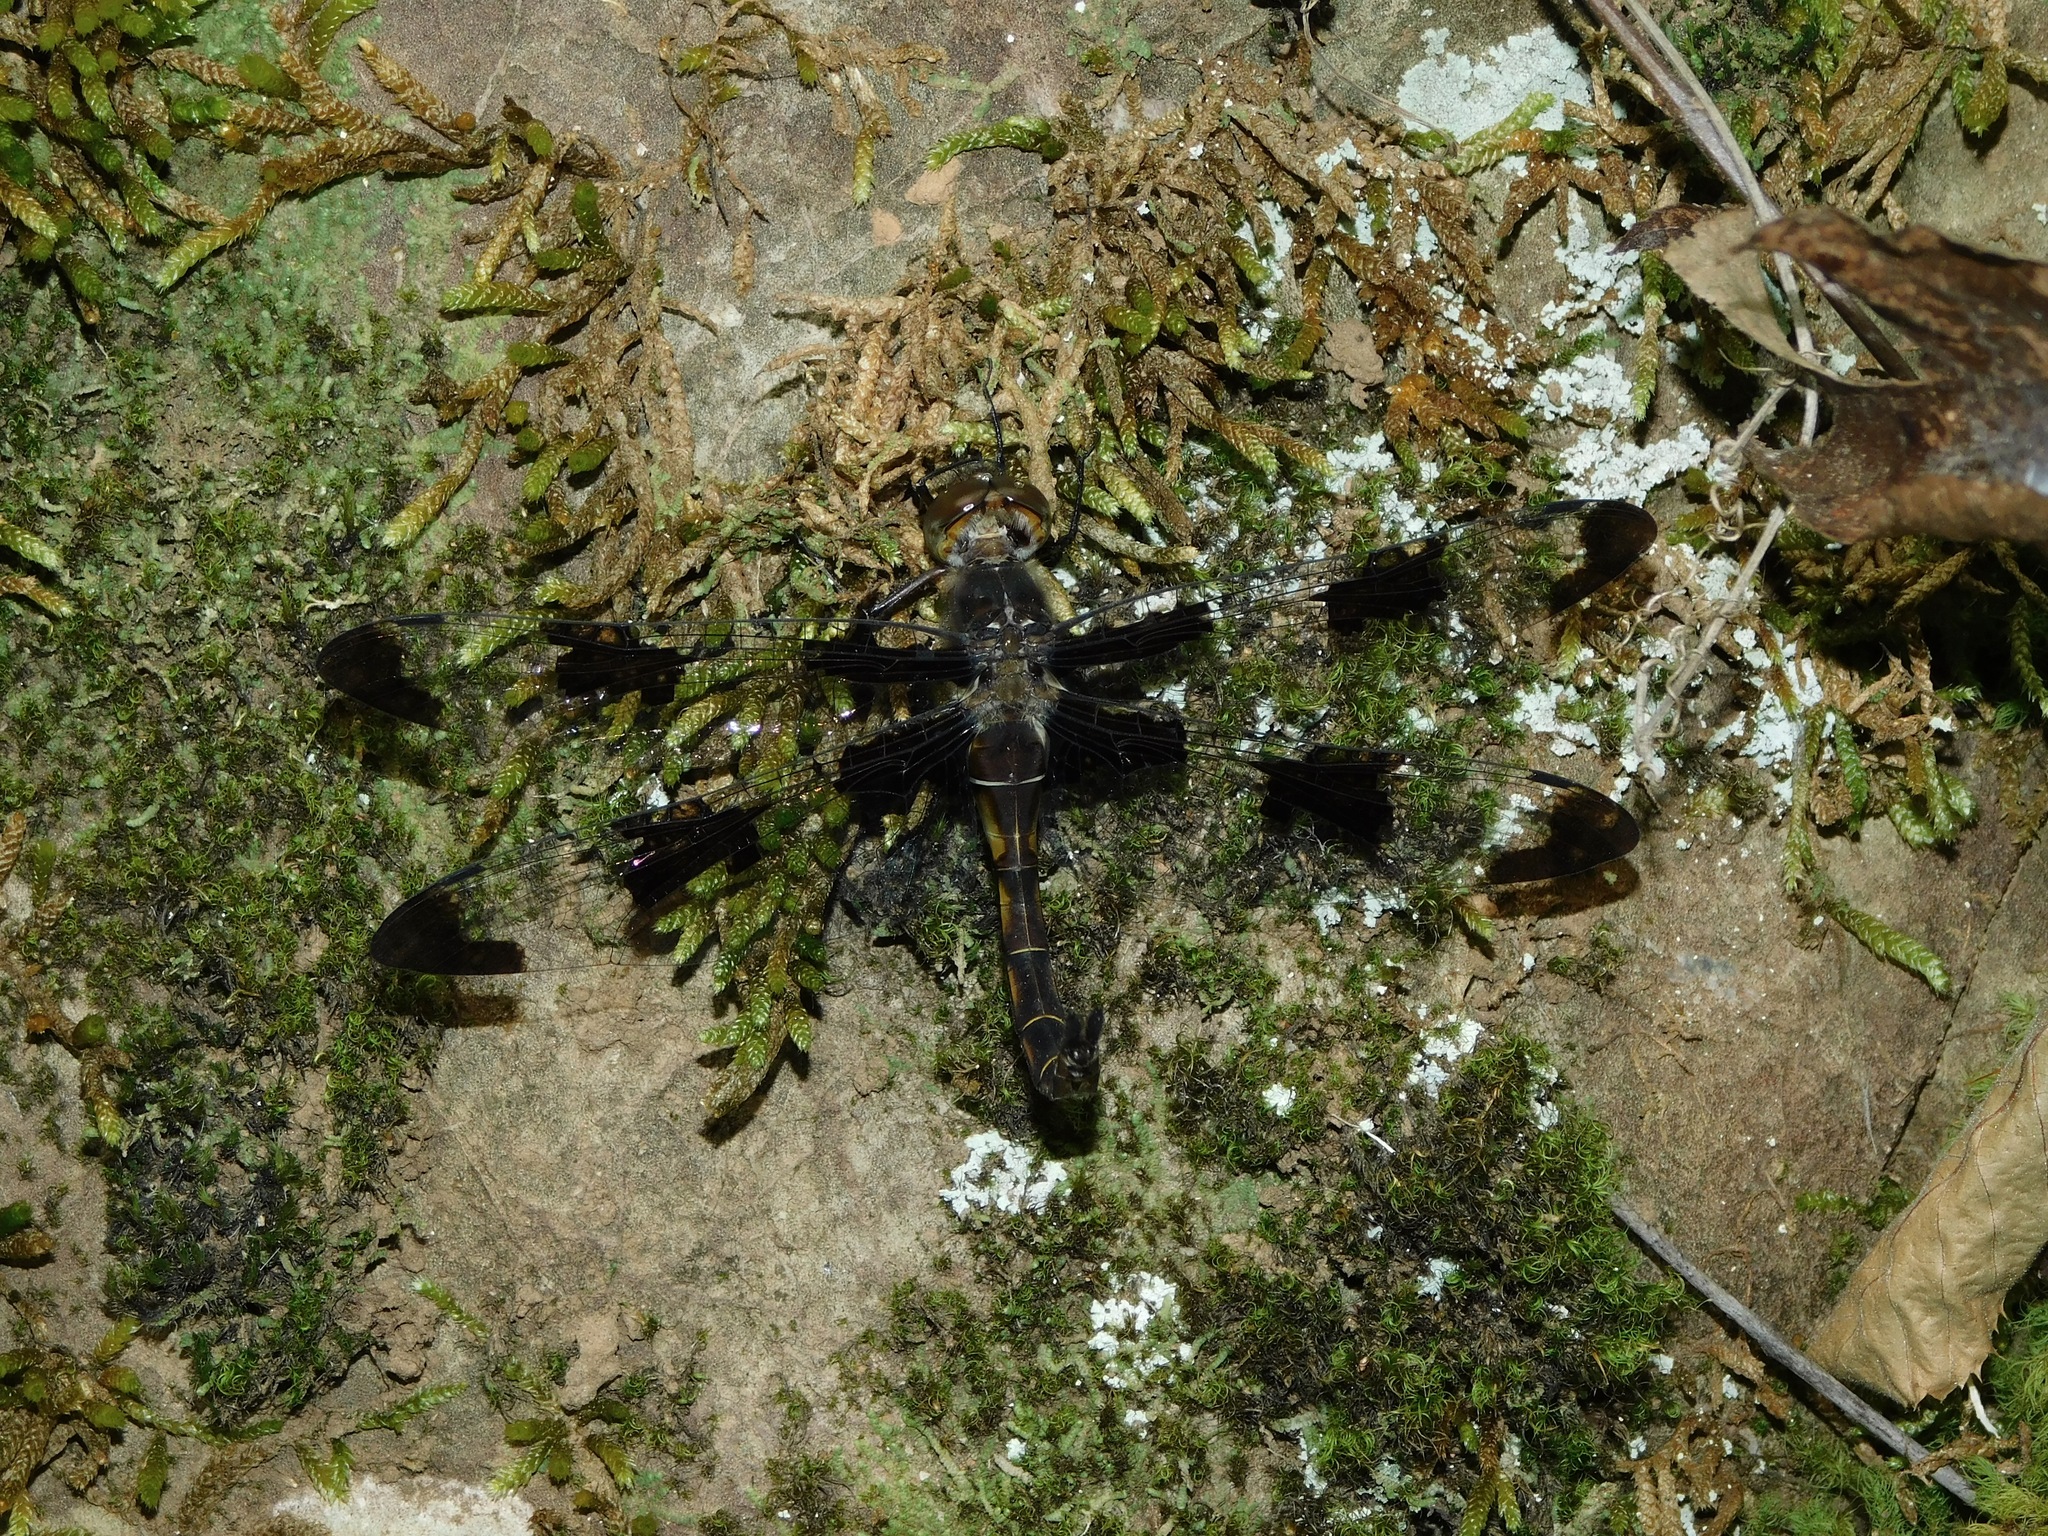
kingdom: Animalia
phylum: Arthropoda
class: Insecta
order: Odonata
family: Corduliidae
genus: Epitheca
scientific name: Epitheca princeps
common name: Prince baskettail
